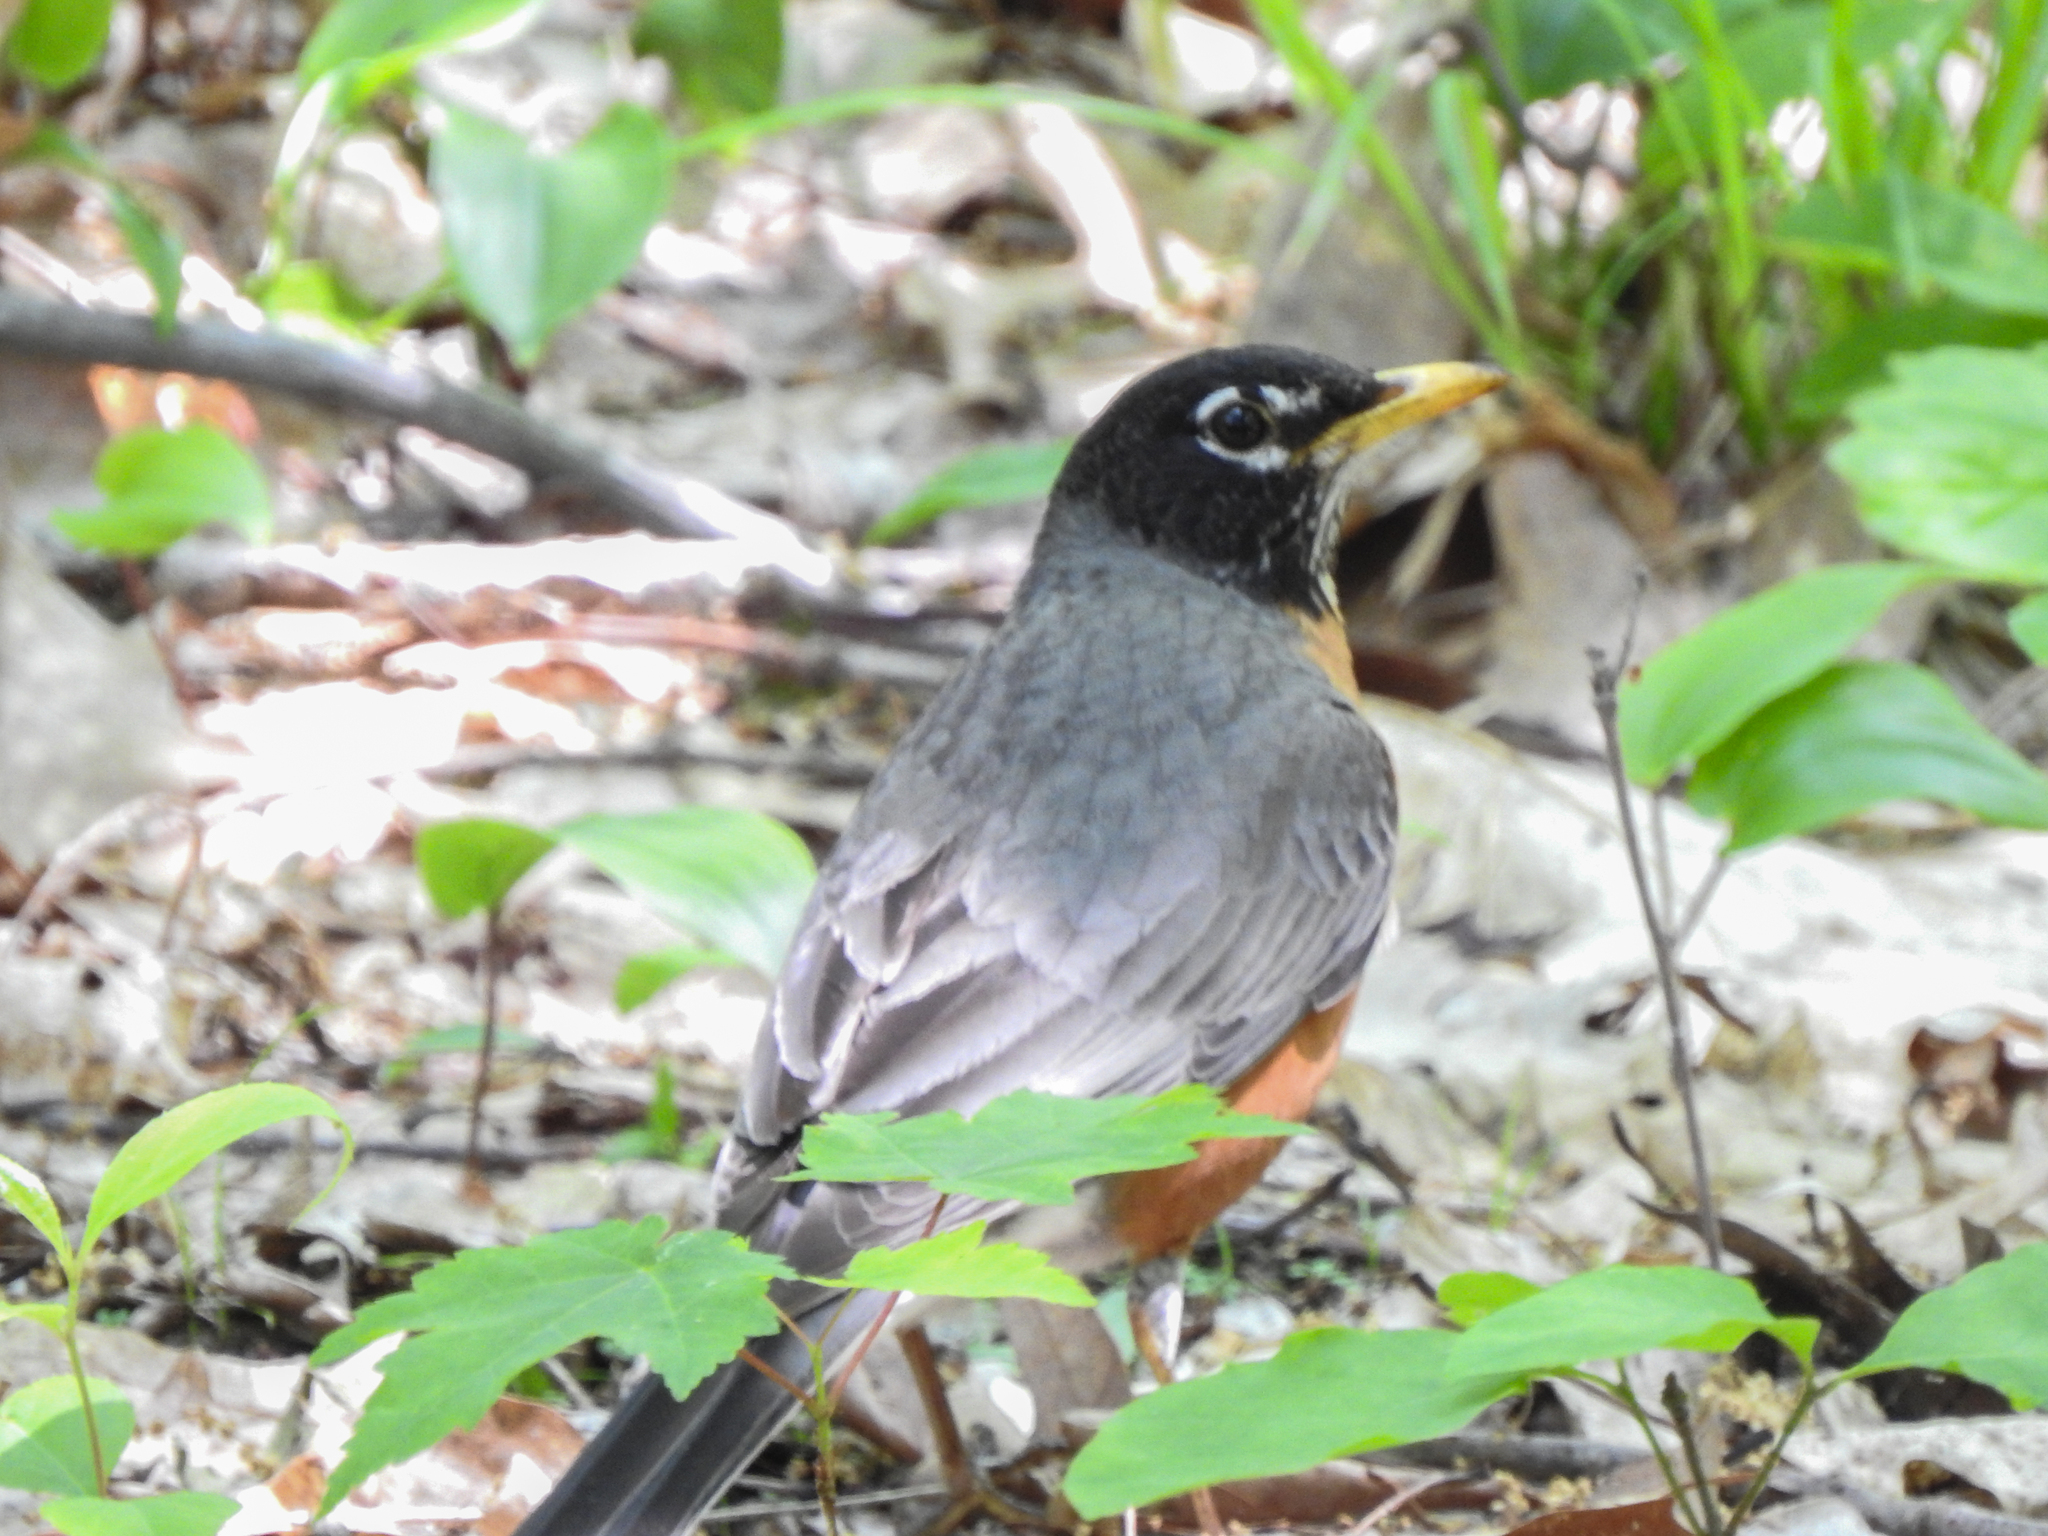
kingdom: Animalia
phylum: Chordata
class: Aves
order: Passeriformes
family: Turdidae
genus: Turdus
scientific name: Turdus migratorius
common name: American robin
